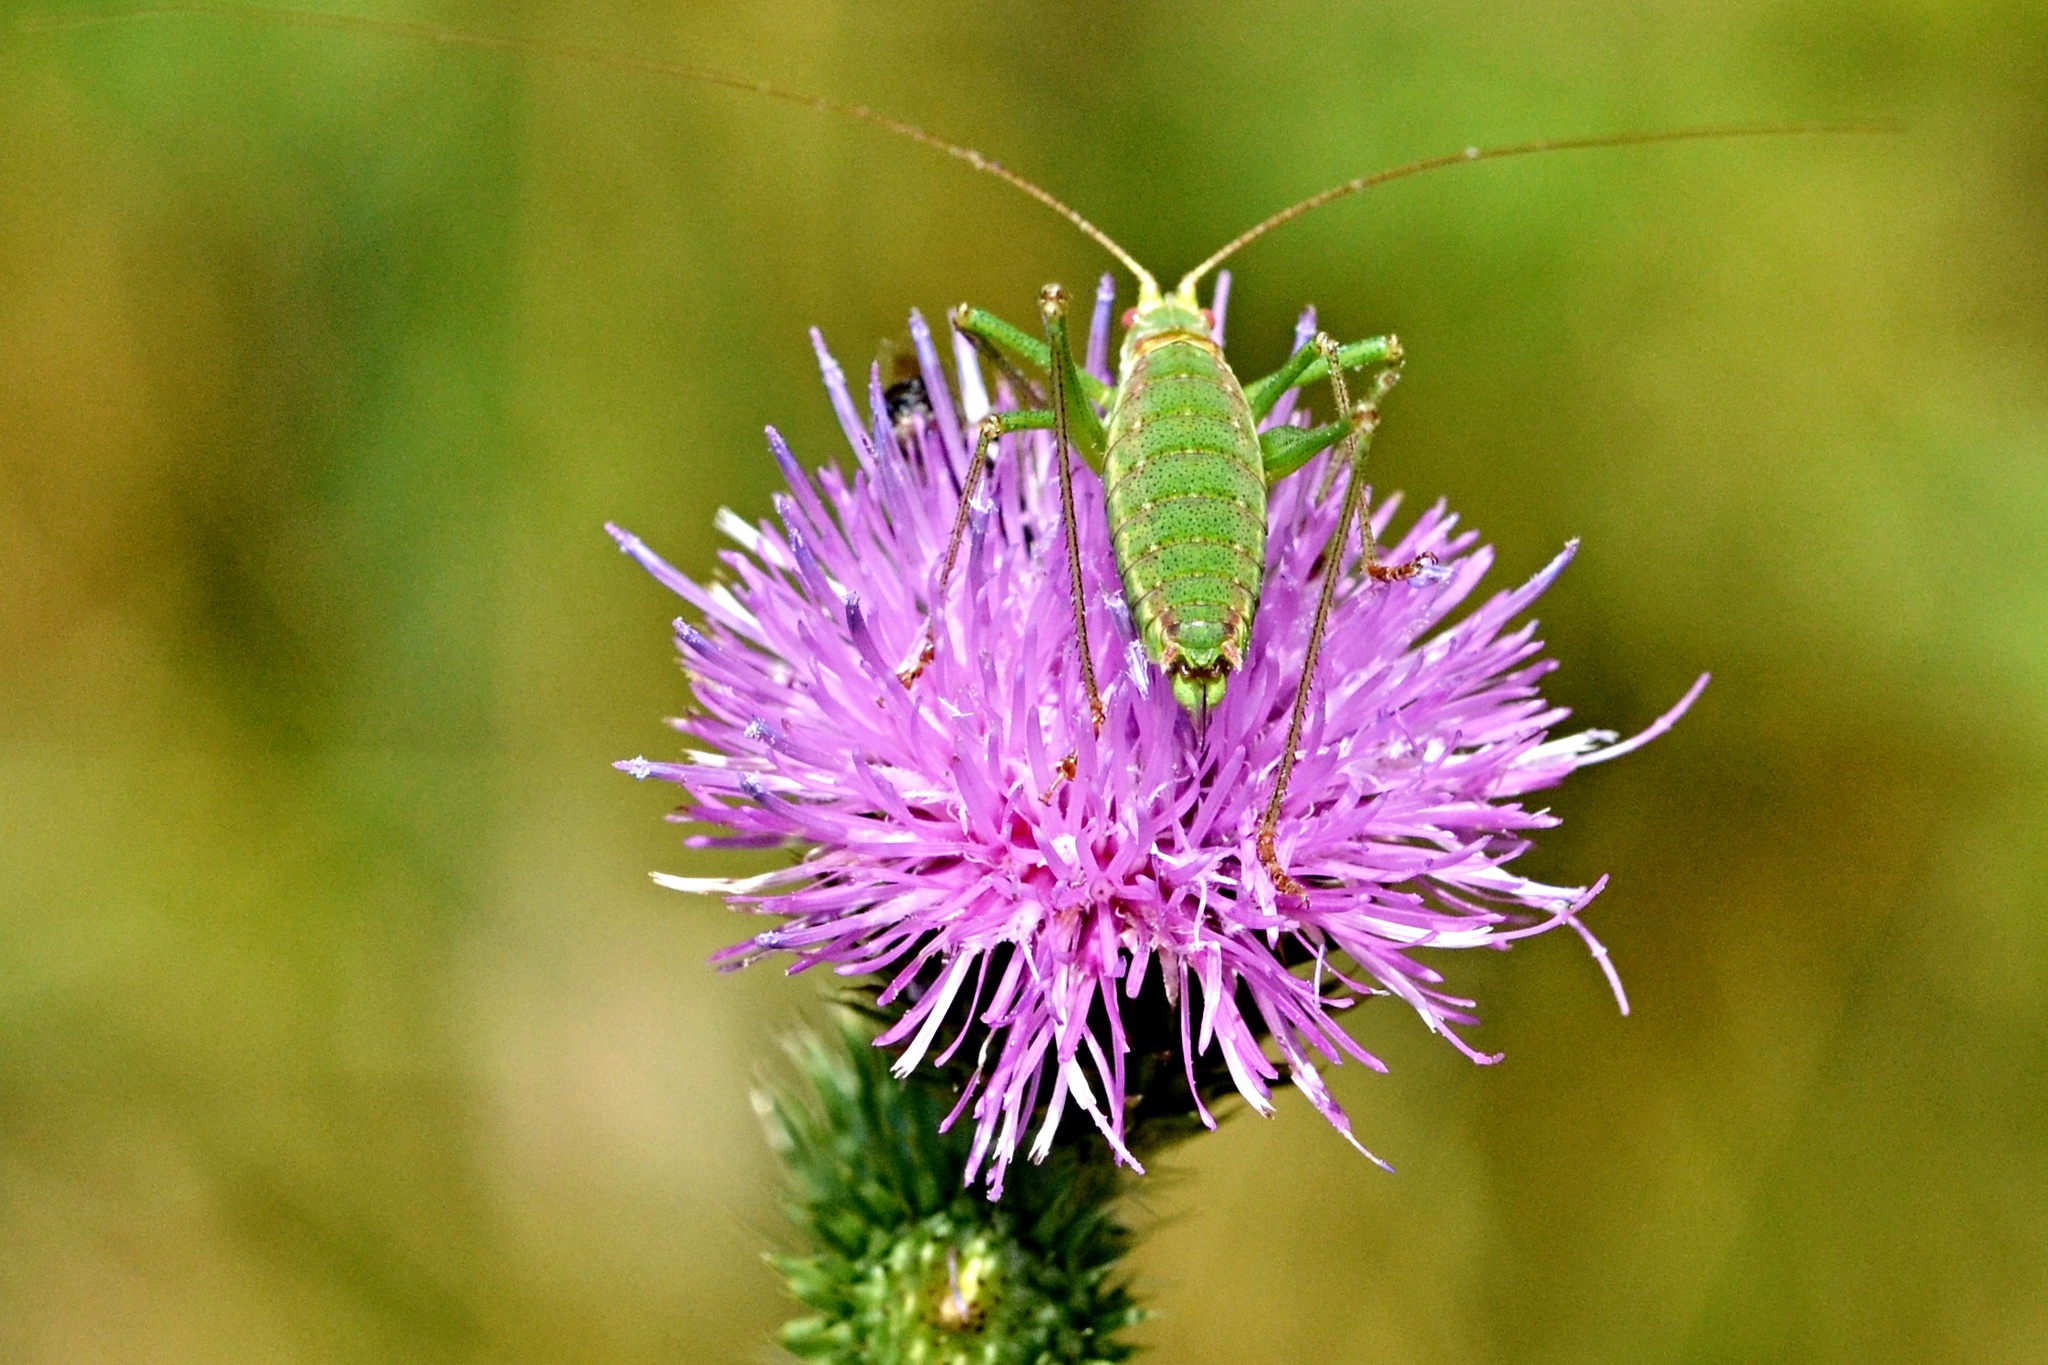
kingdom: Animalia
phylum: Arthropoda
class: Insecta
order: Orthoptera
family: Tettigoniidae
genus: Leptophyes
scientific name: Leptophyes albovittata
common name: Striped bush-cricket
